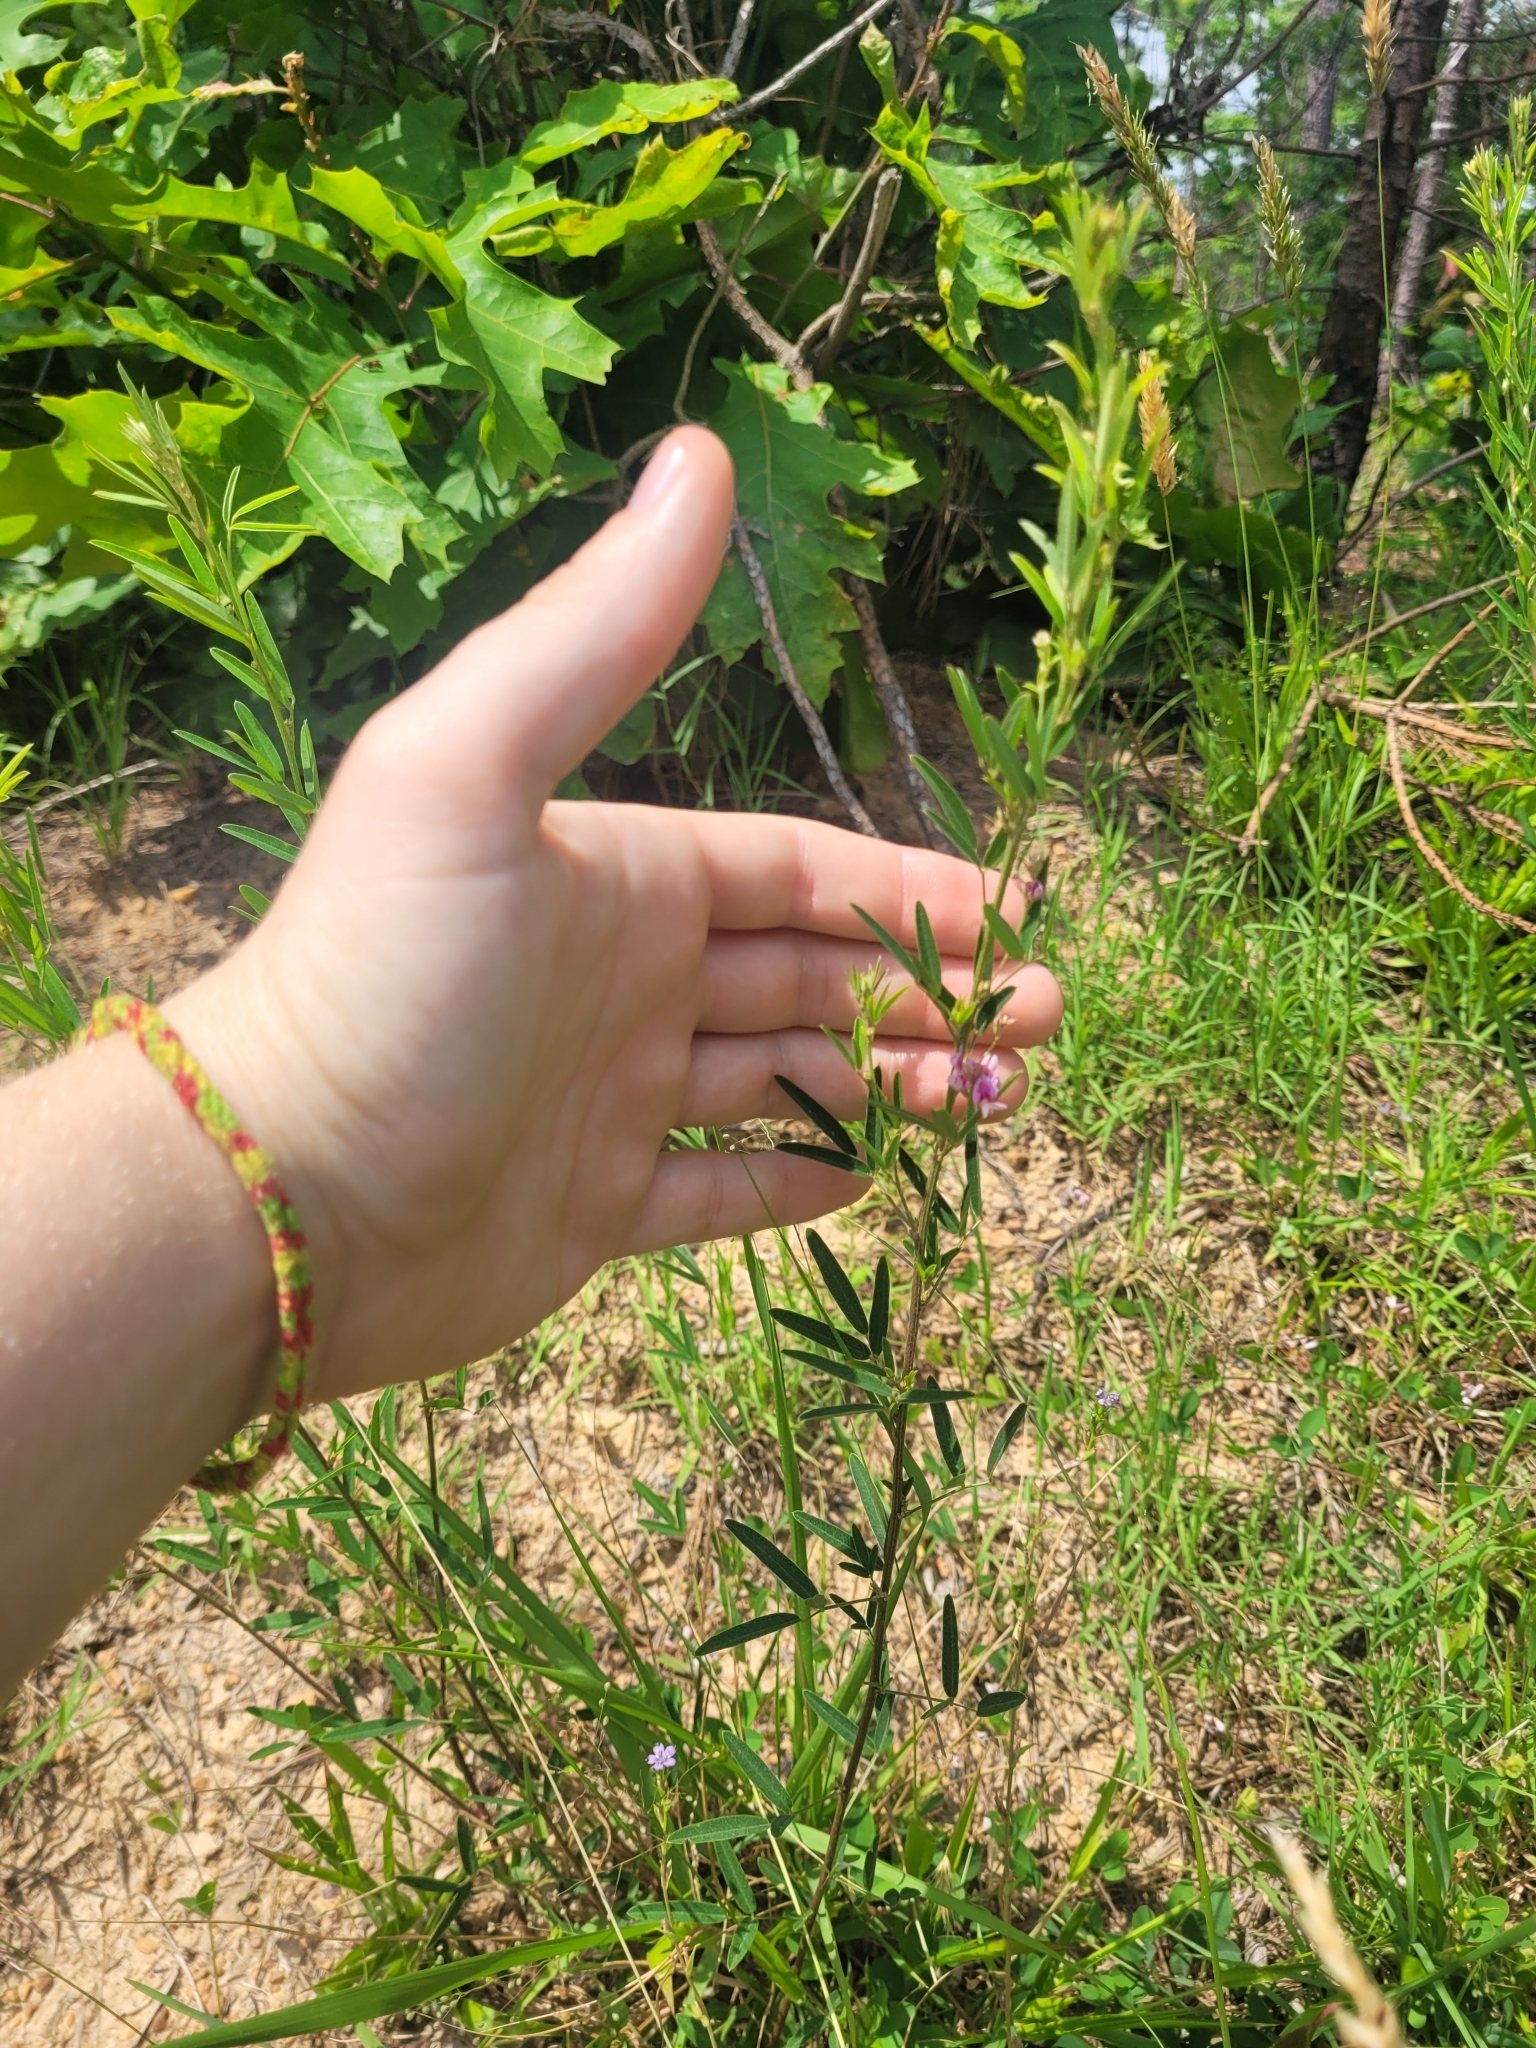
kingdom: Plantae
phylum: Tracheophyta
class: Magnoliopsida
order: Fabales
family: Fabaceae
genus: Lespedeza
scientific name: Lespedeza virginica
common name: Slender bush-clover
